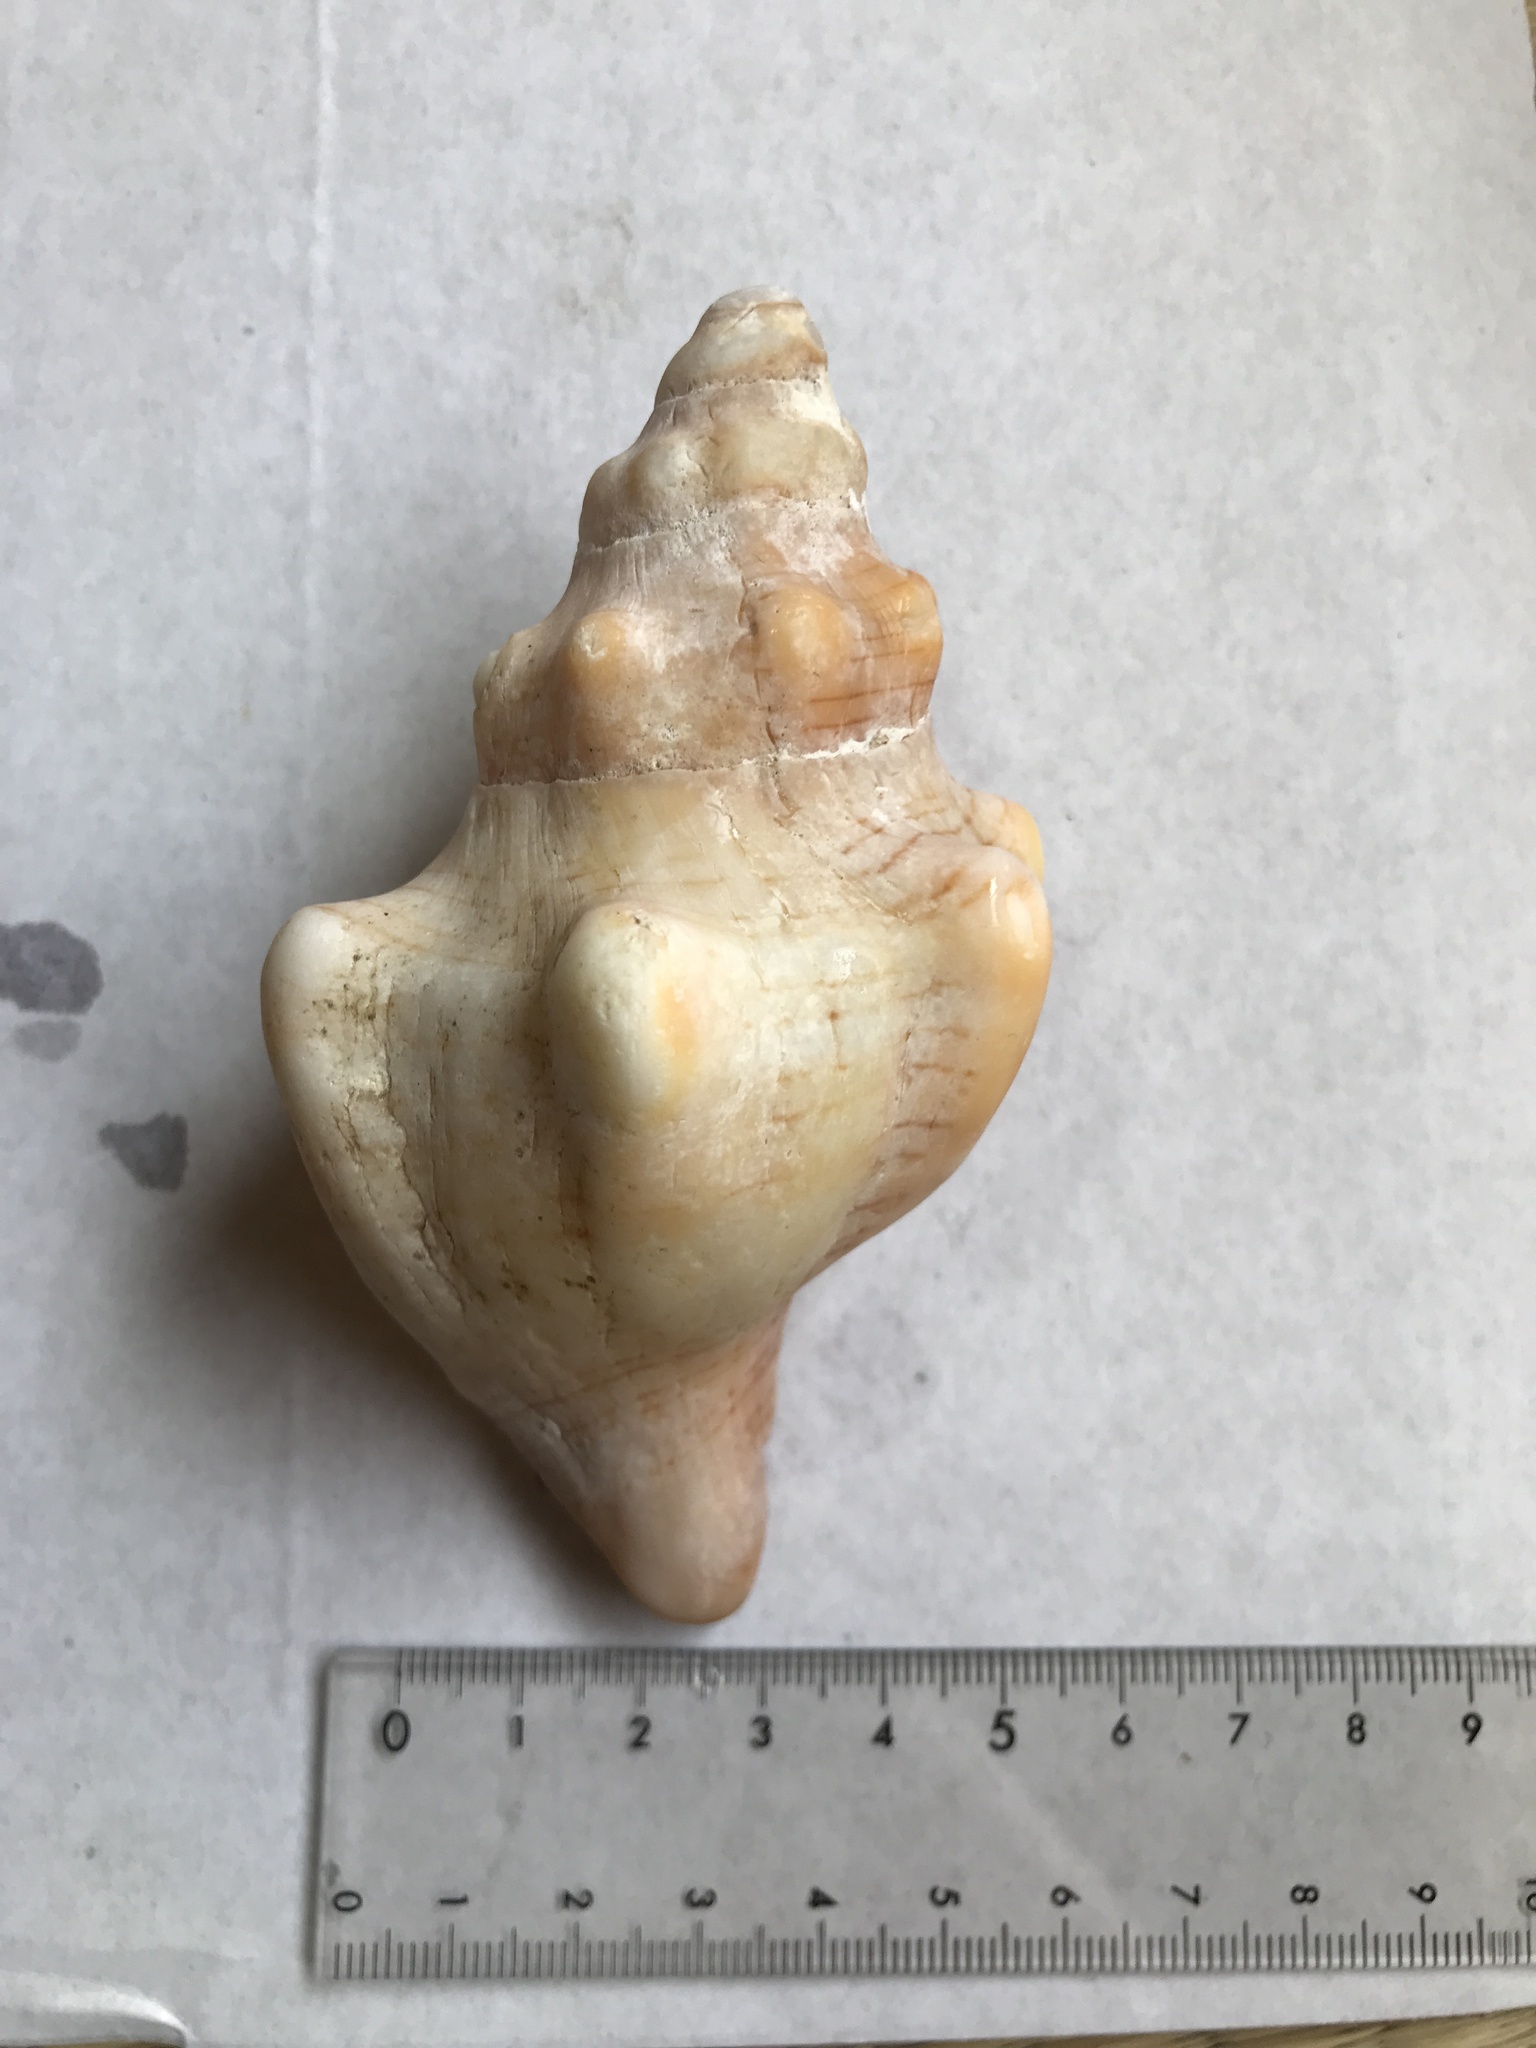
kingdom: Animalia
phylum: Mollusca
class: Gastropoda
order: Neogastropoda
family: Fasciolariidae
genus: Pleuroploca
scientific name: Pleuroploca trapezium
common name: Trapeze horseconch
